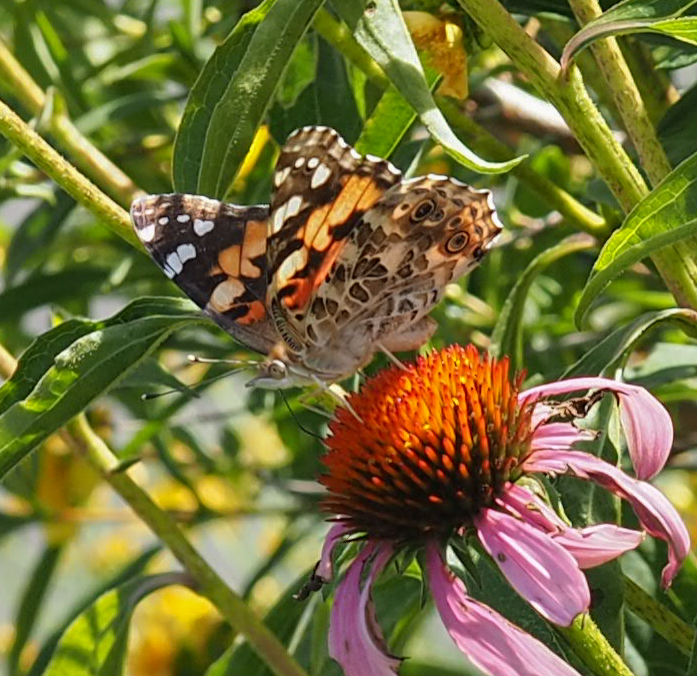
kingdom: Animalia
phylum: Arthropoda
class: Insecta
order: Lepidoptera
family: Nymphalidae
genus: Vanessa
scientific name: Vanessa cardui
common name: Painted lady
